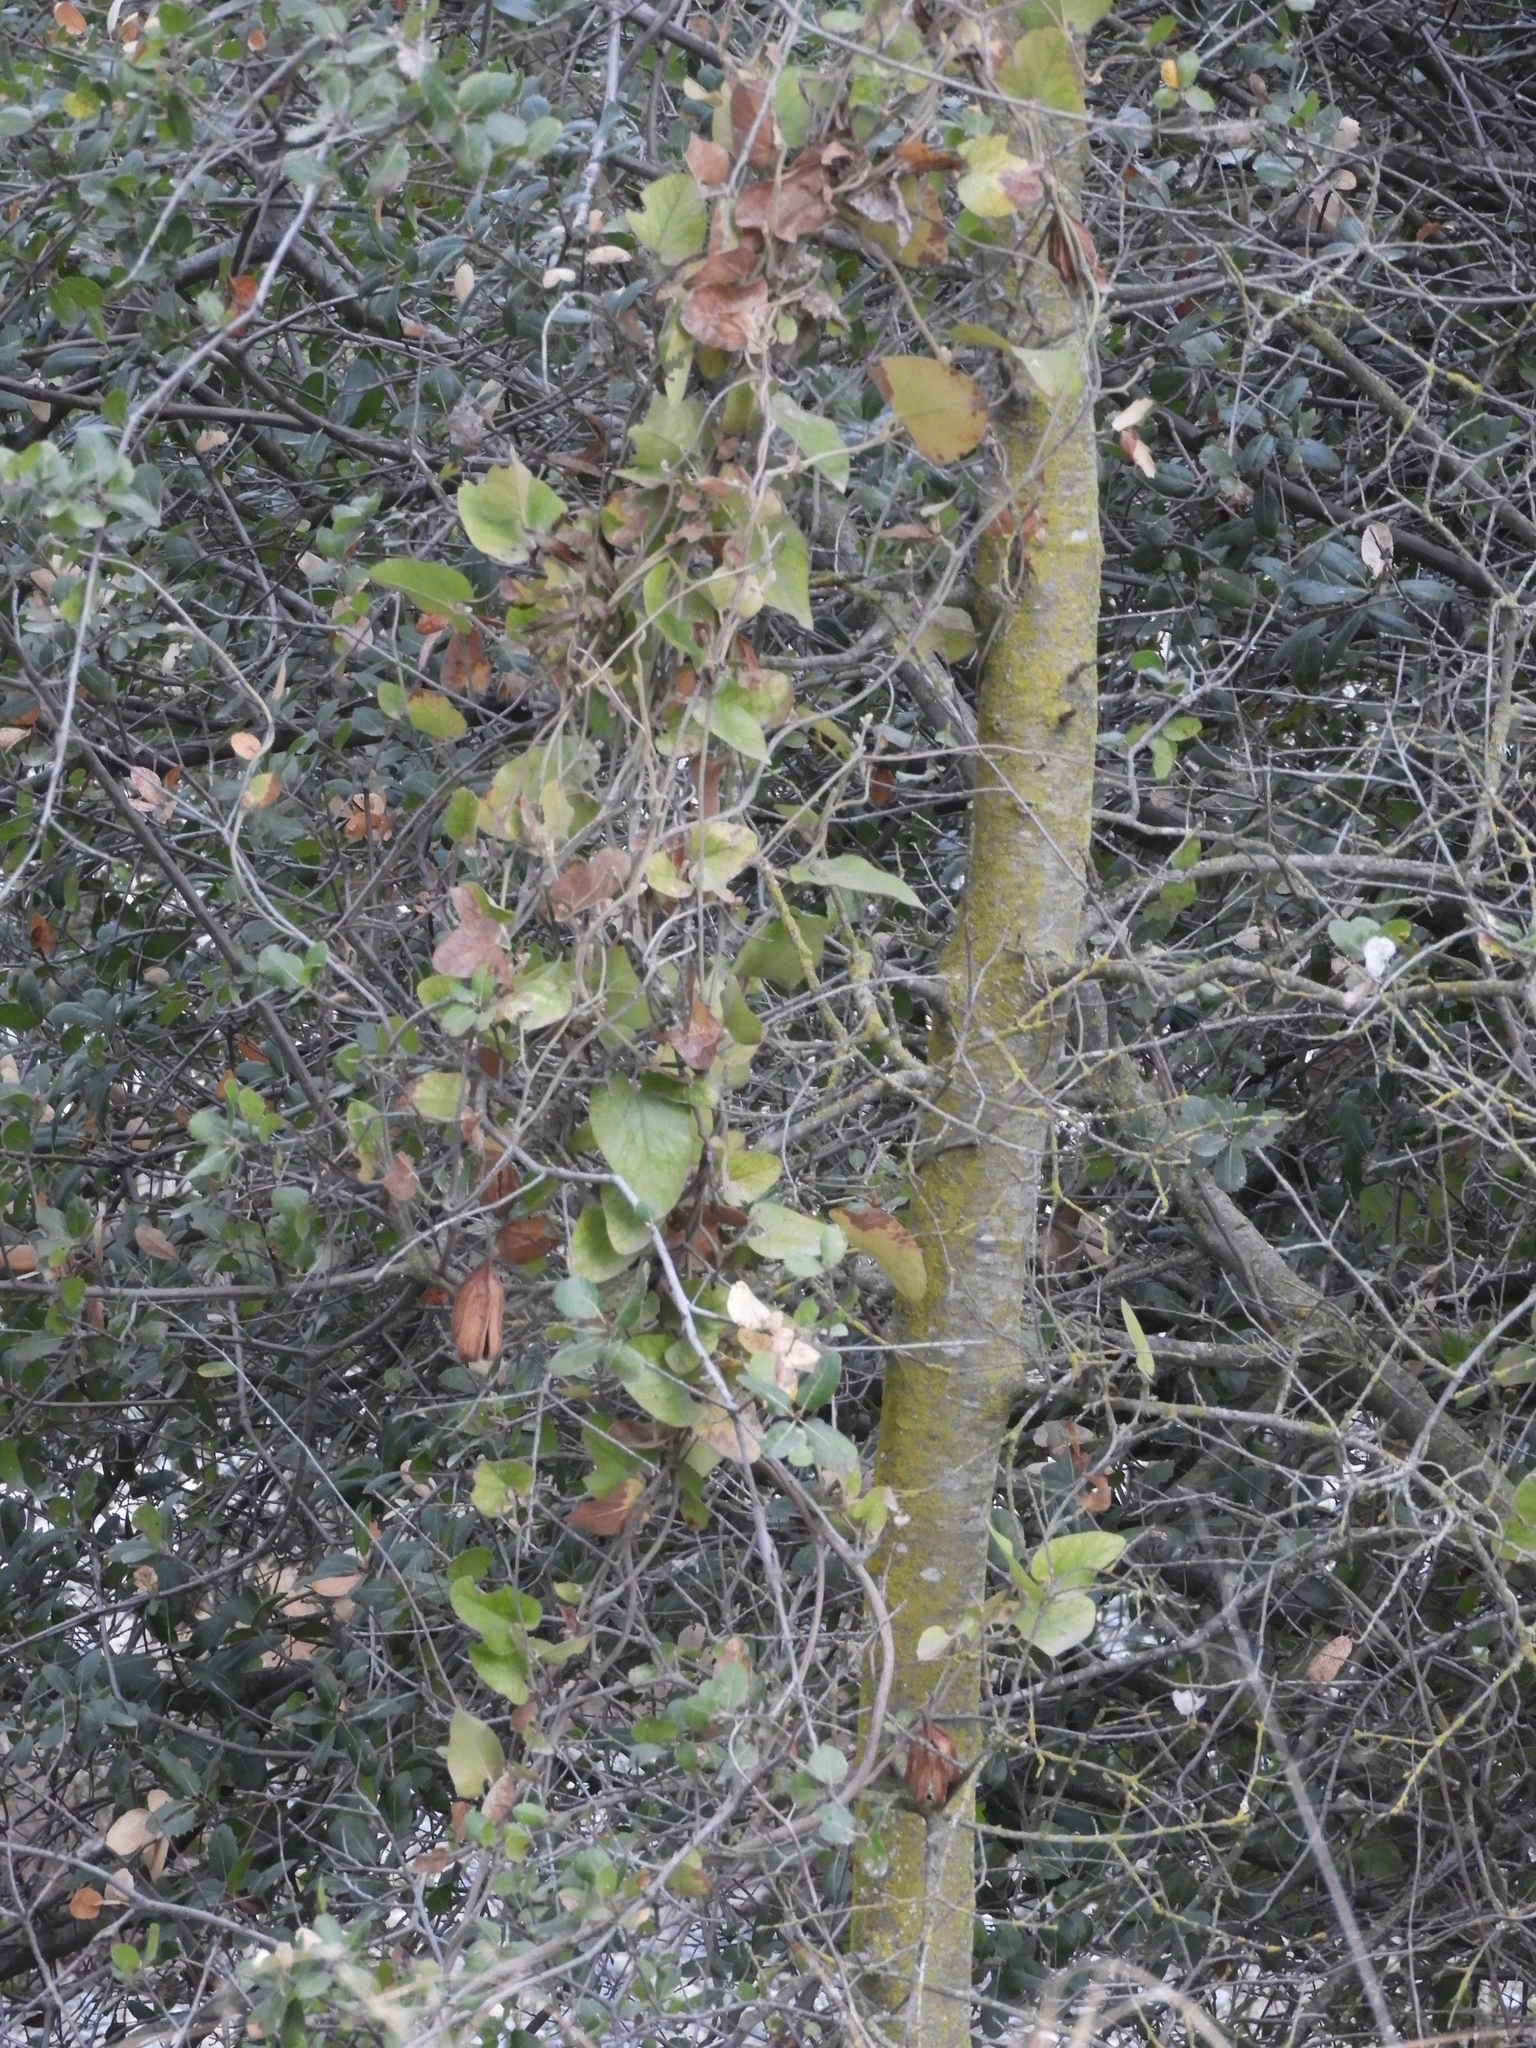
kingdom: Plantae
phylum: Tracheophyta
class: Magnoliopsida
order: Piperales
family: Aristolochiaceae
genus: Isotrema
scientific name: Isotrema californicum
